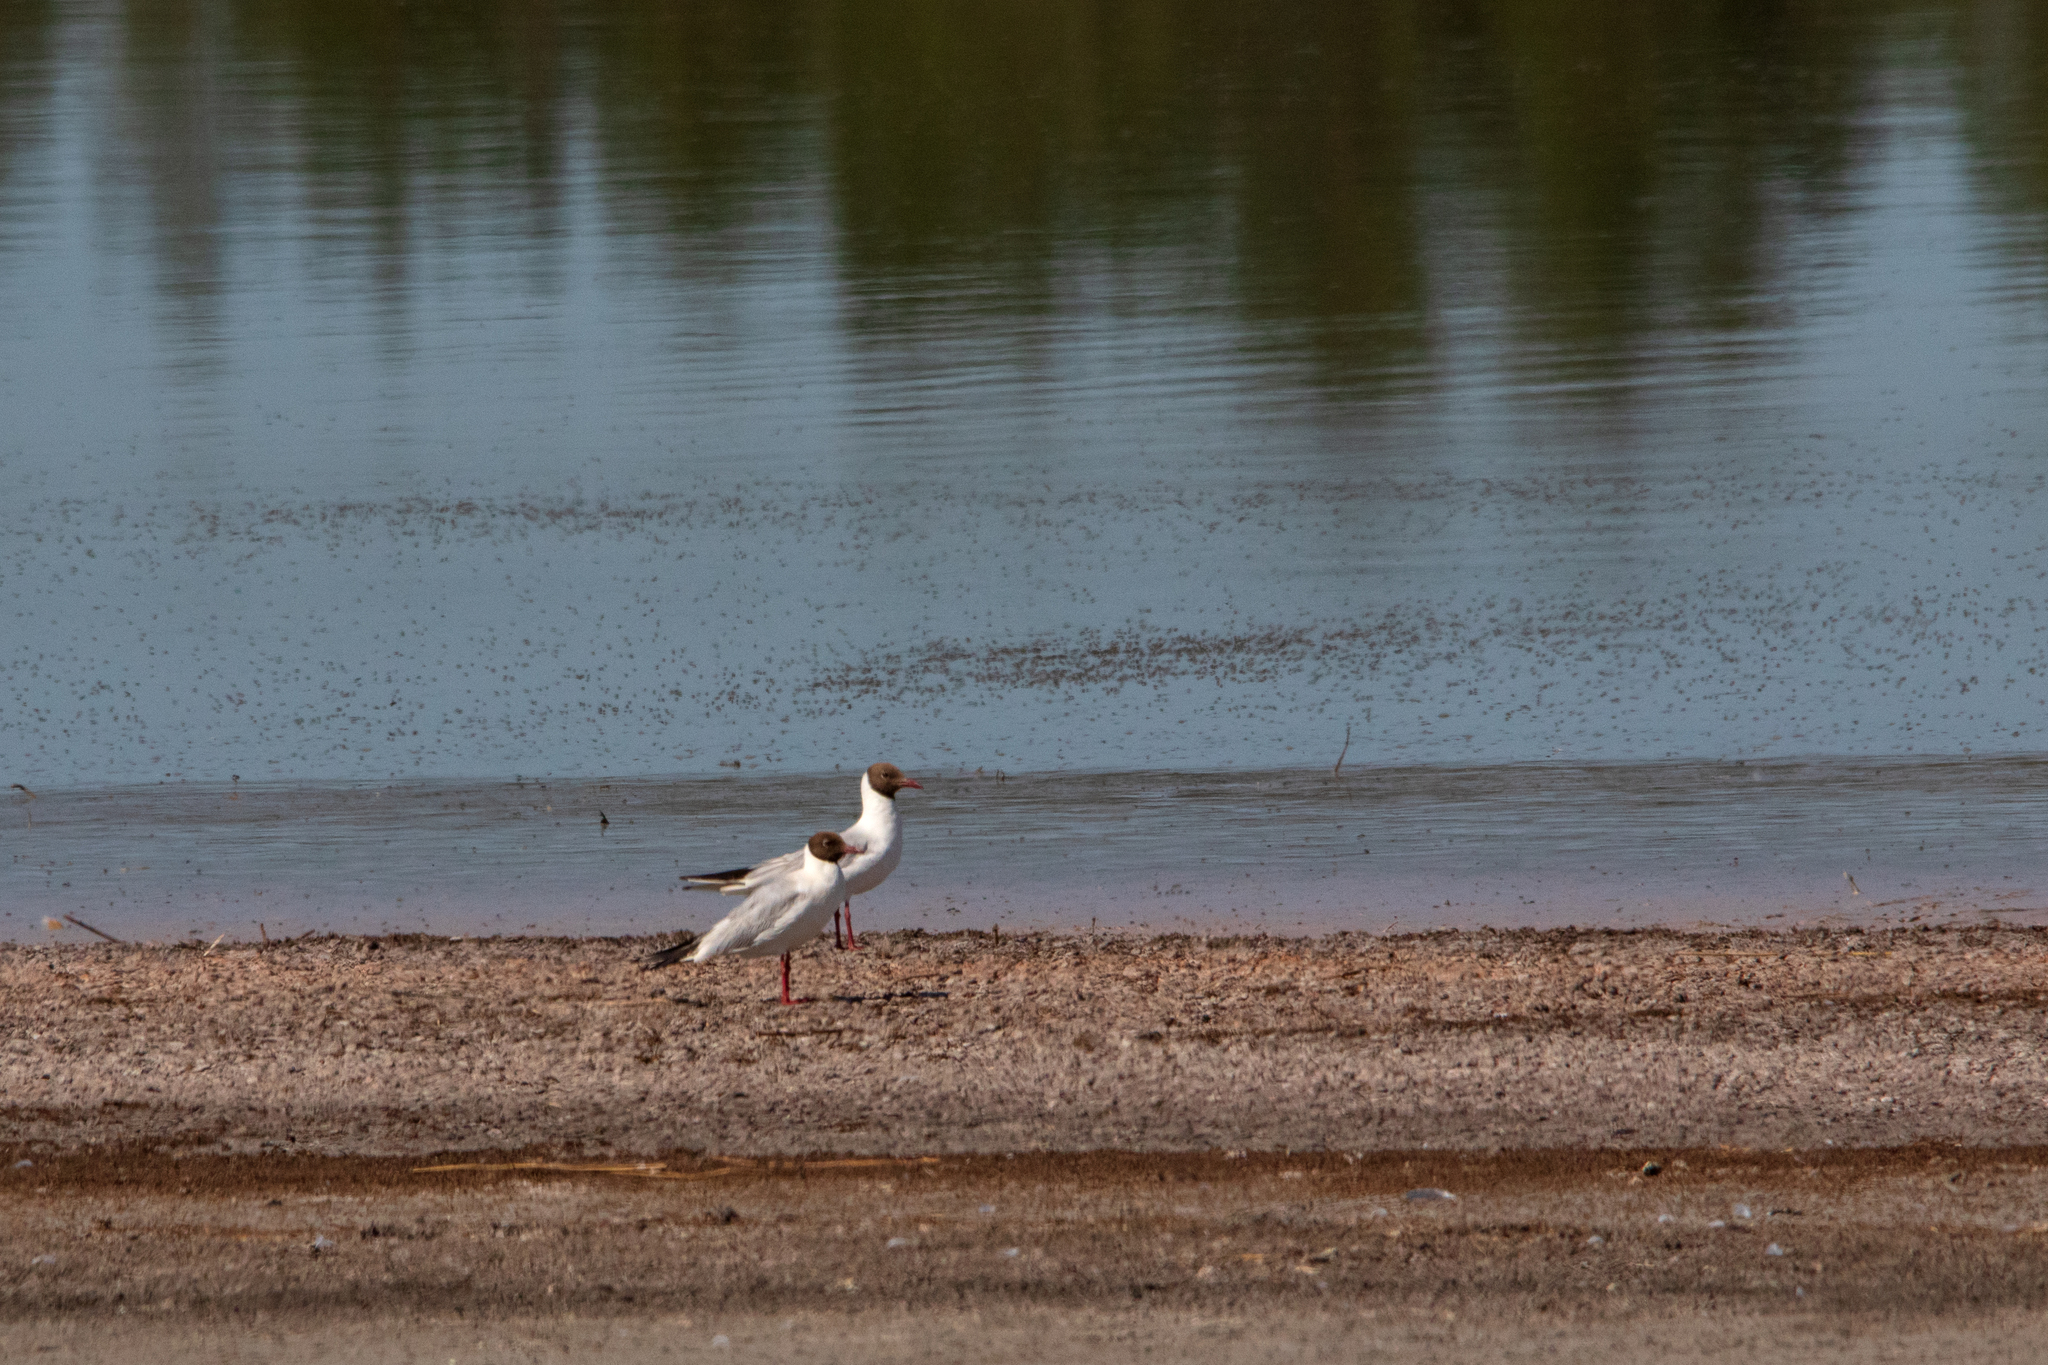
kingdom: Animalia
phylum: Chordata
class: Aves
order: Charadriiformes
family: Laridae
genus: Chroicocephalus
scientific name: Chroicocephalus ridibundus
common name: Black-headed gull
